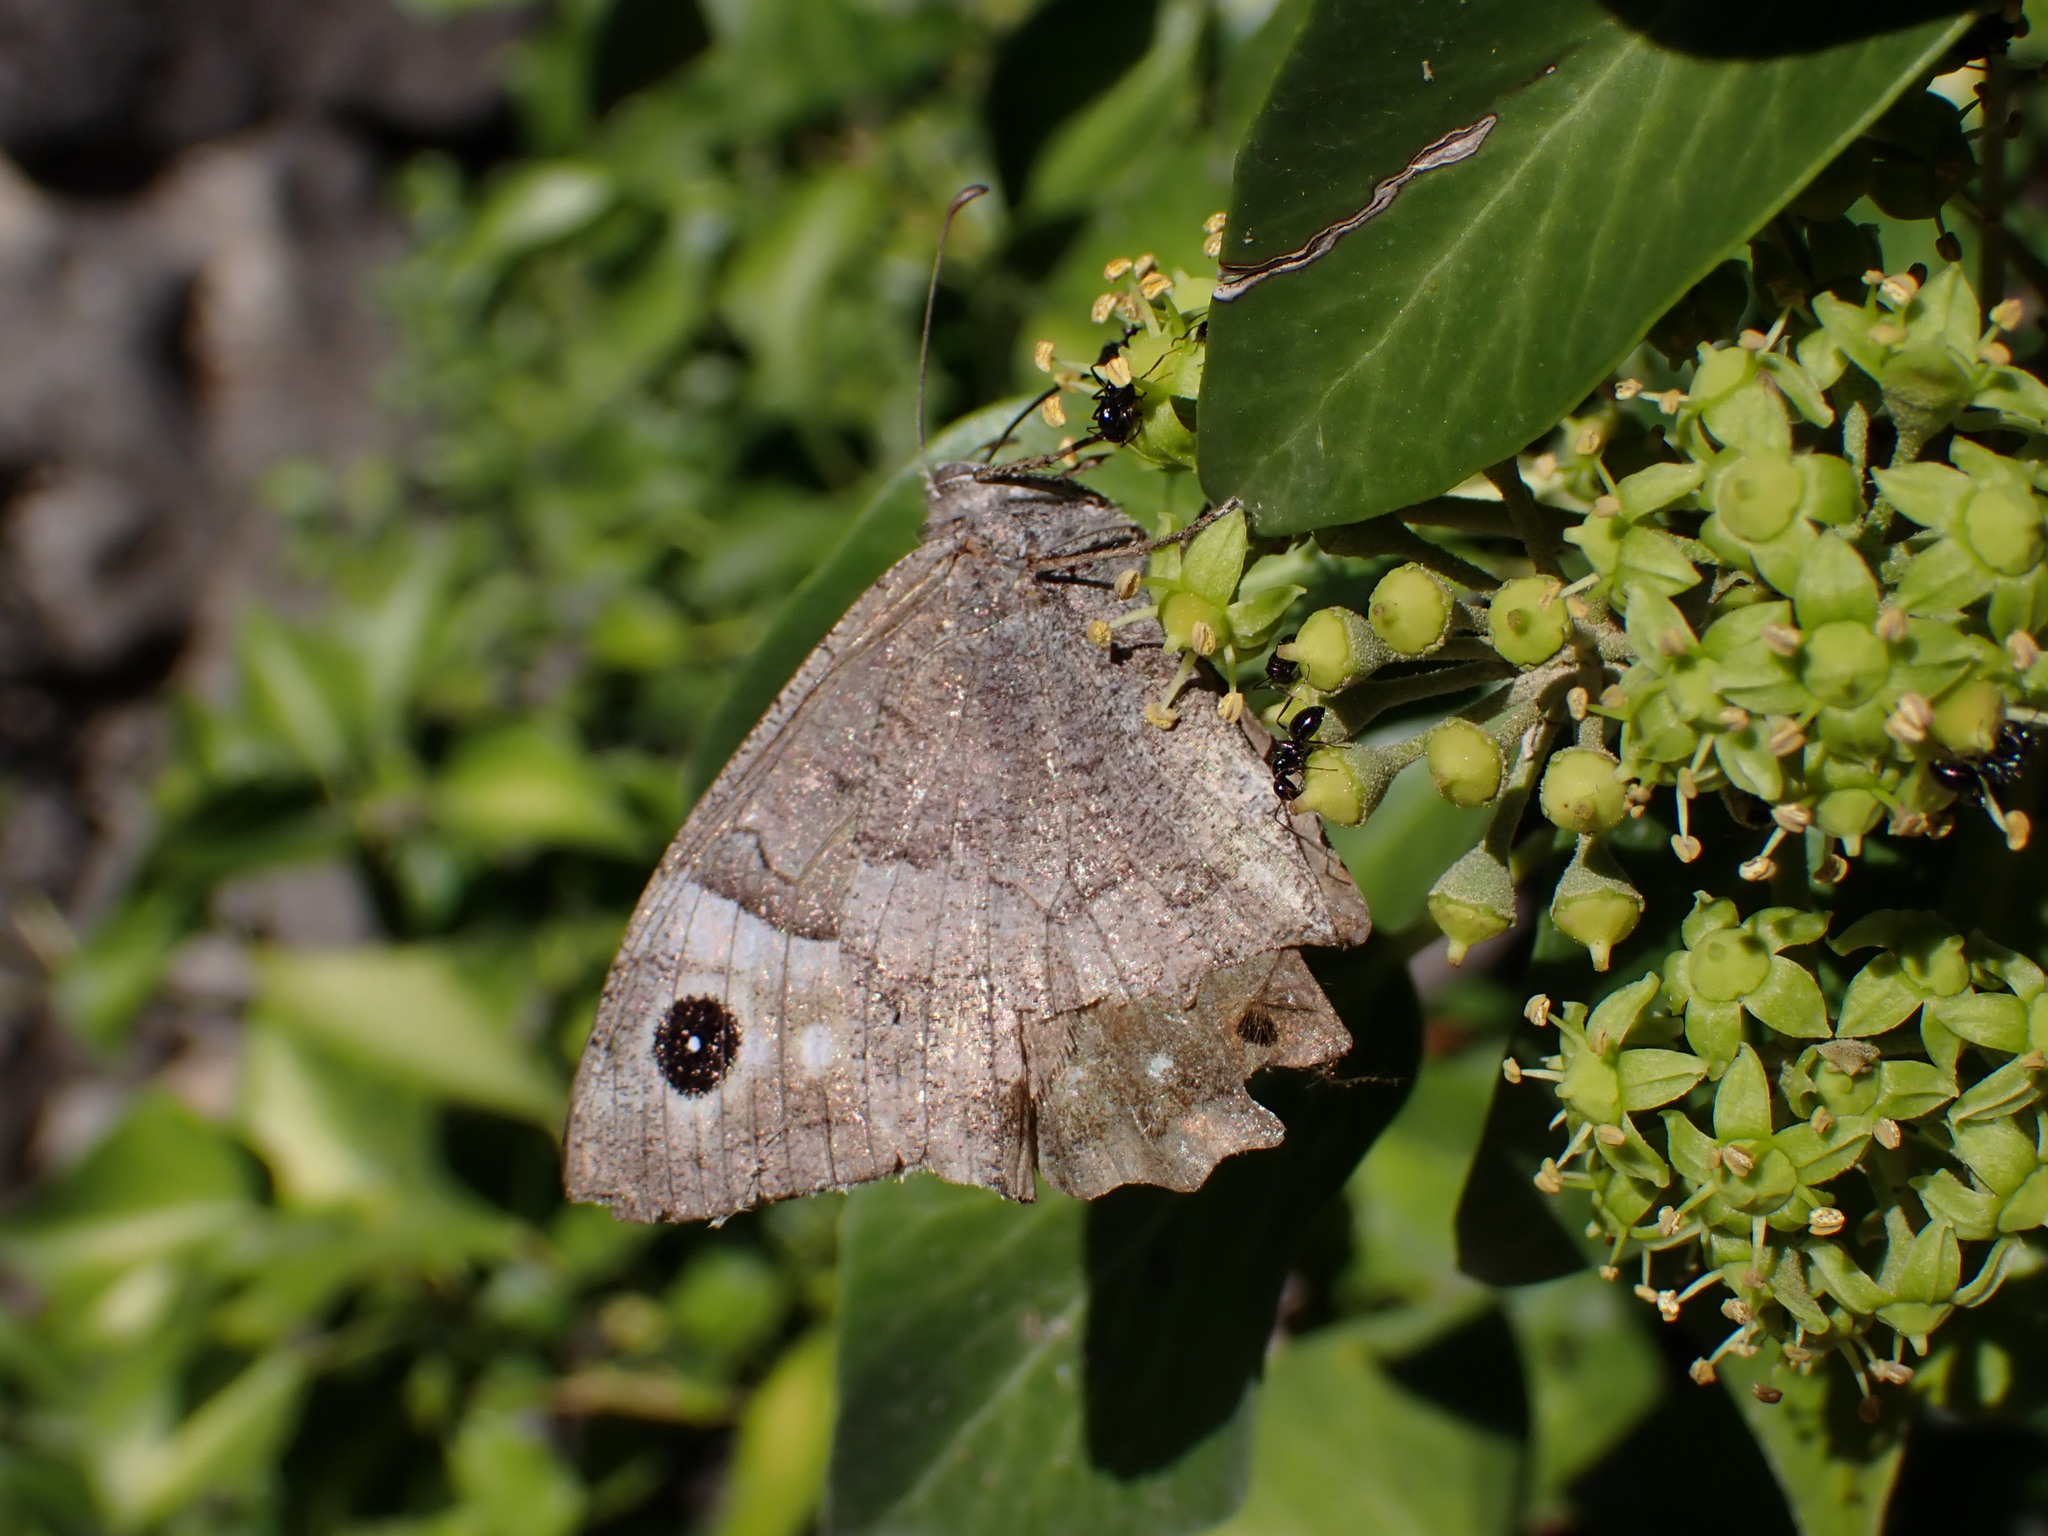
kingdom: Animalia
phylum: Arthropoda
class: Insecta
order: Lepidoptera
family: Nymphalidae
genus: Hipparchia
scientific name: Hipparchia statilinus
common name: Tree grayling
